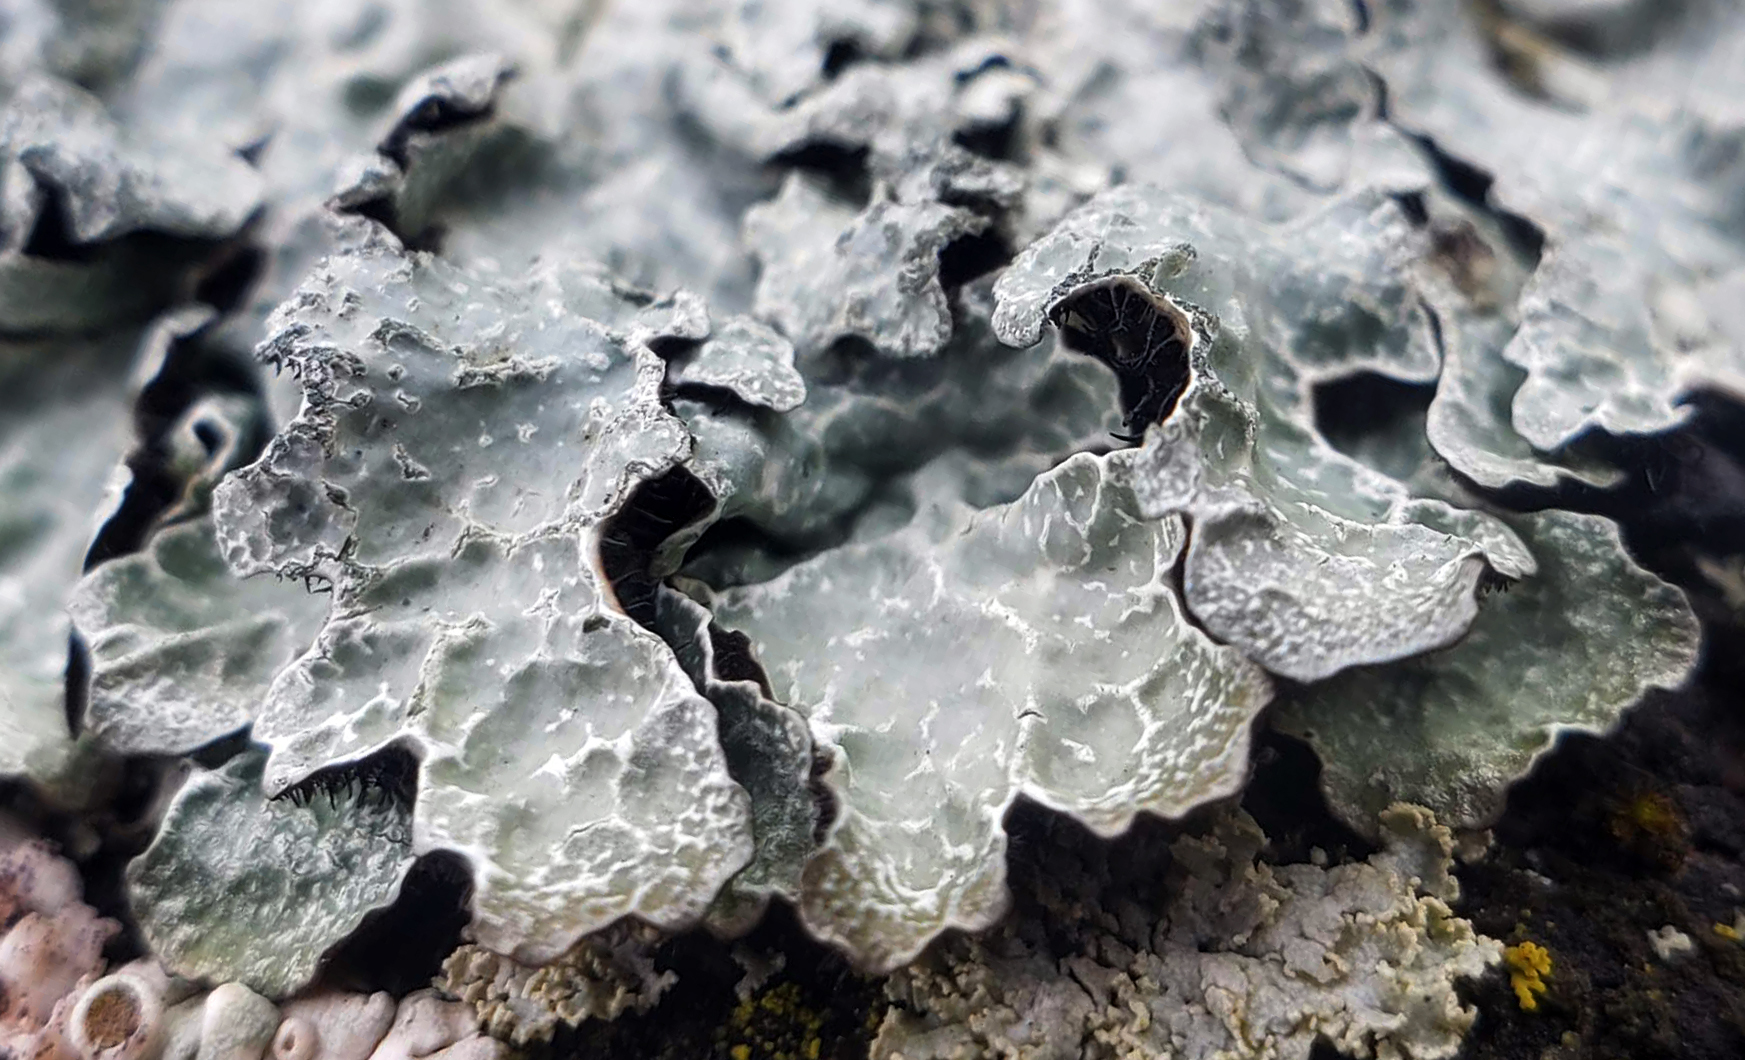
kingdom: Fungi
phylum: Ascomycota
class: Lecanoromycetes
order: Lecanorales
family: Parmeliaceae
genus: Parmelia
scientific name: Parmelia sulcata
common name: Netted shield lichen
